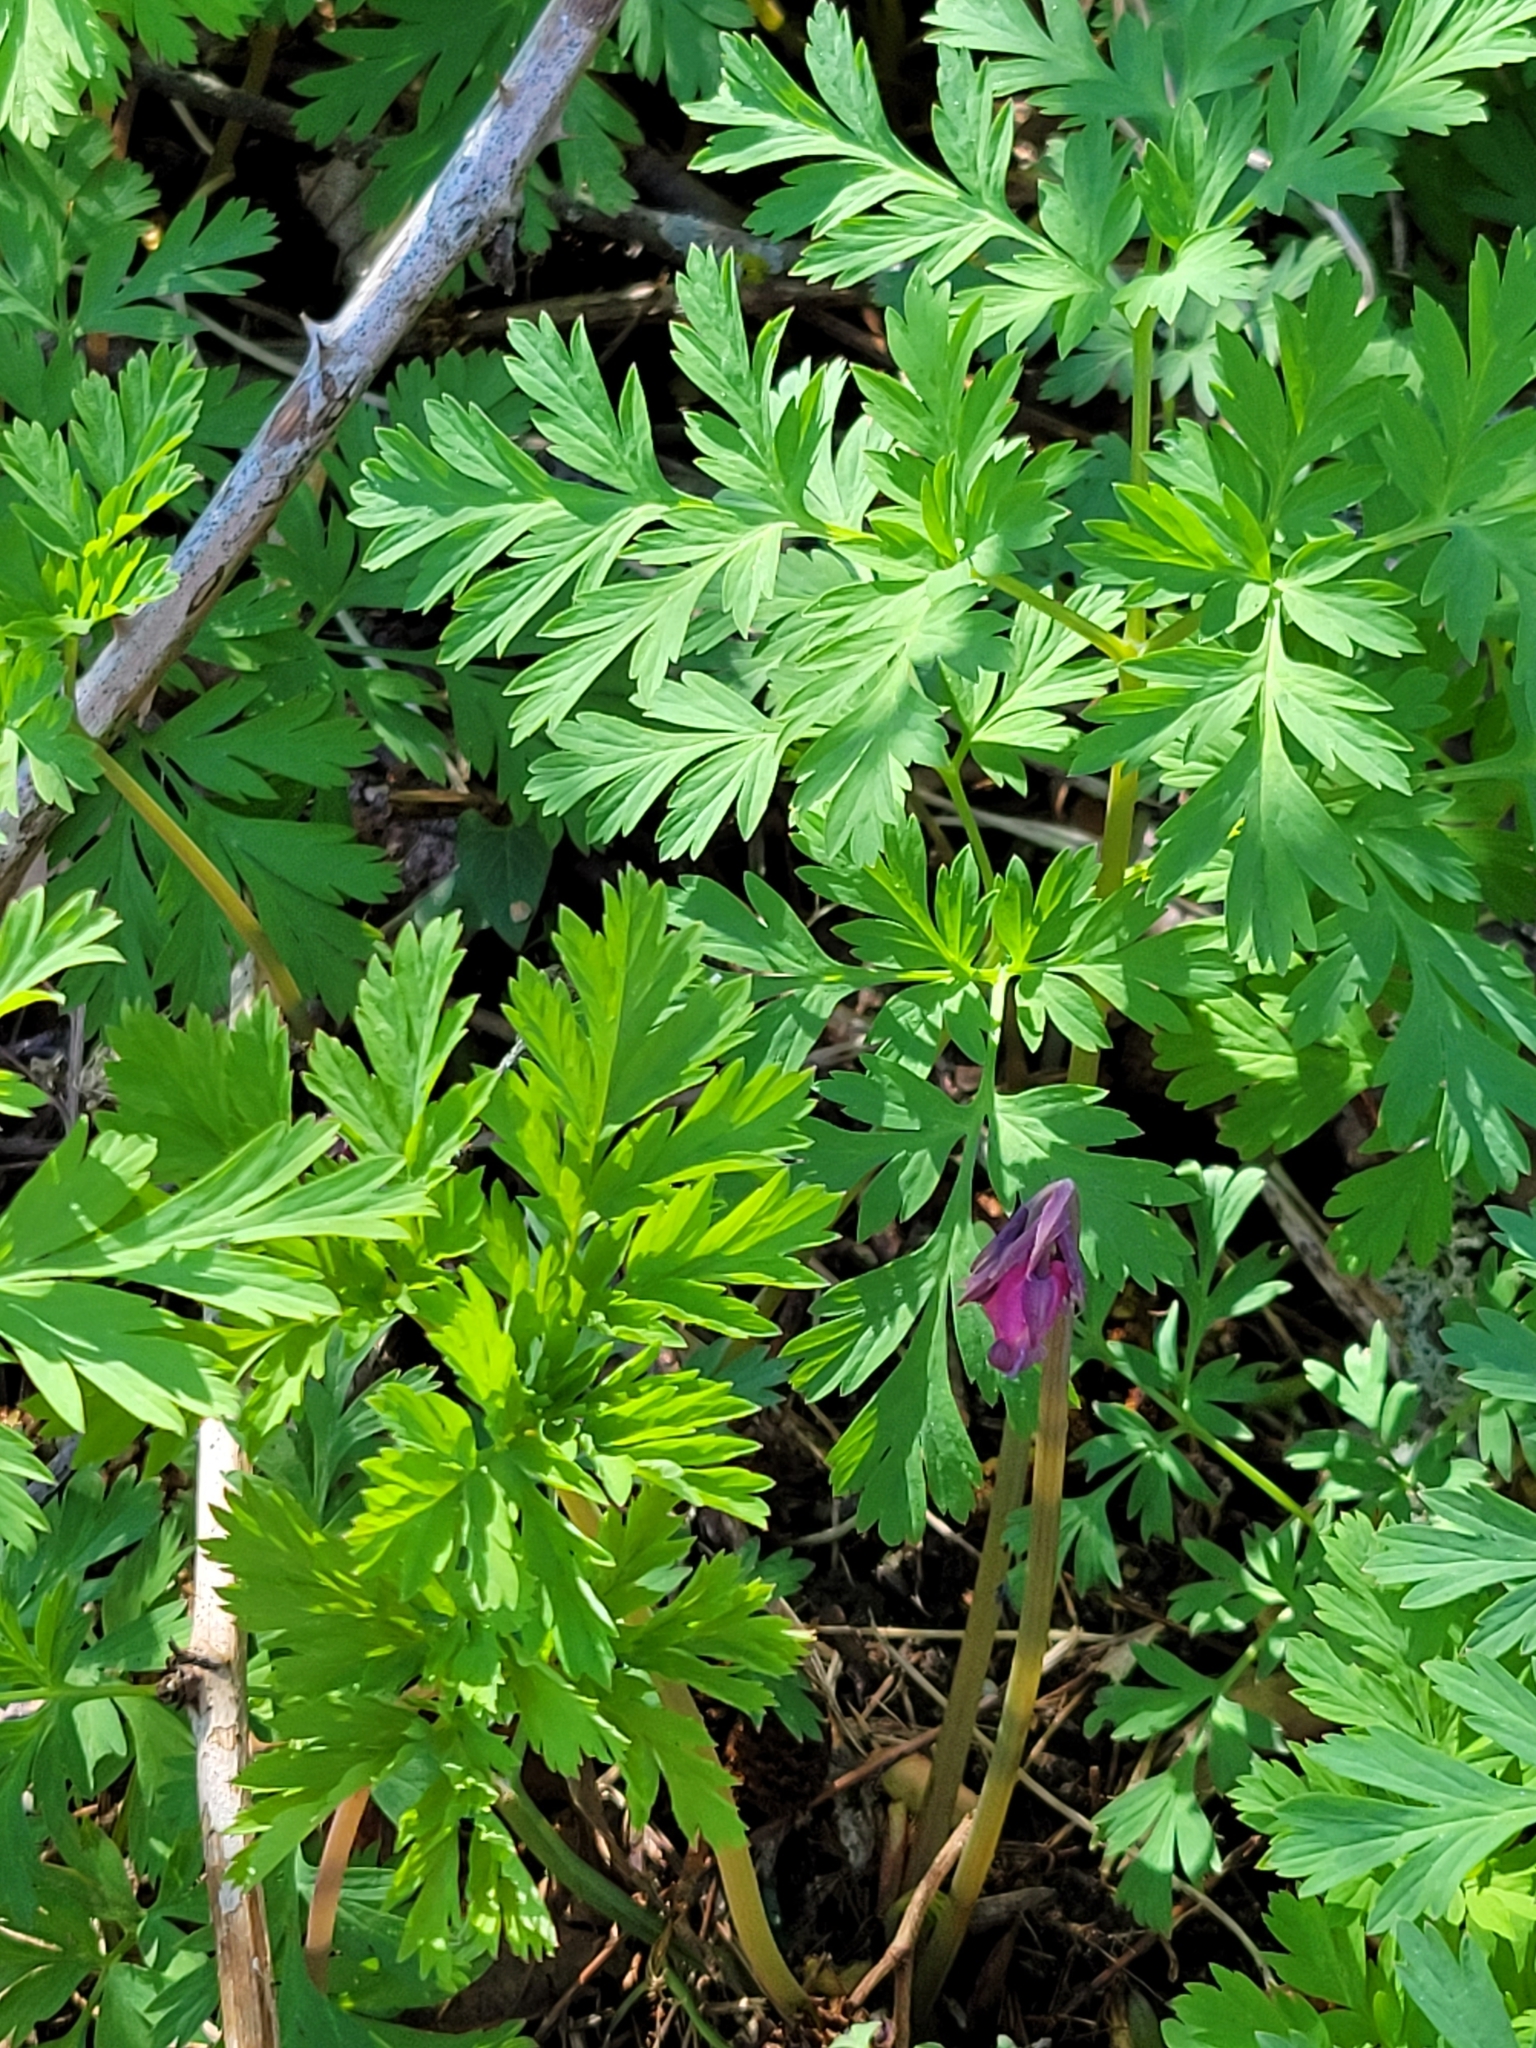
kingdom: Plantae
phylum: Tracheophyta
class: Magnoliopsida
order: Ranunculales
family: Papaveraceae
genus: Dicentra
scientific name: Dicentra formosa
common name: Bleeding-heart
